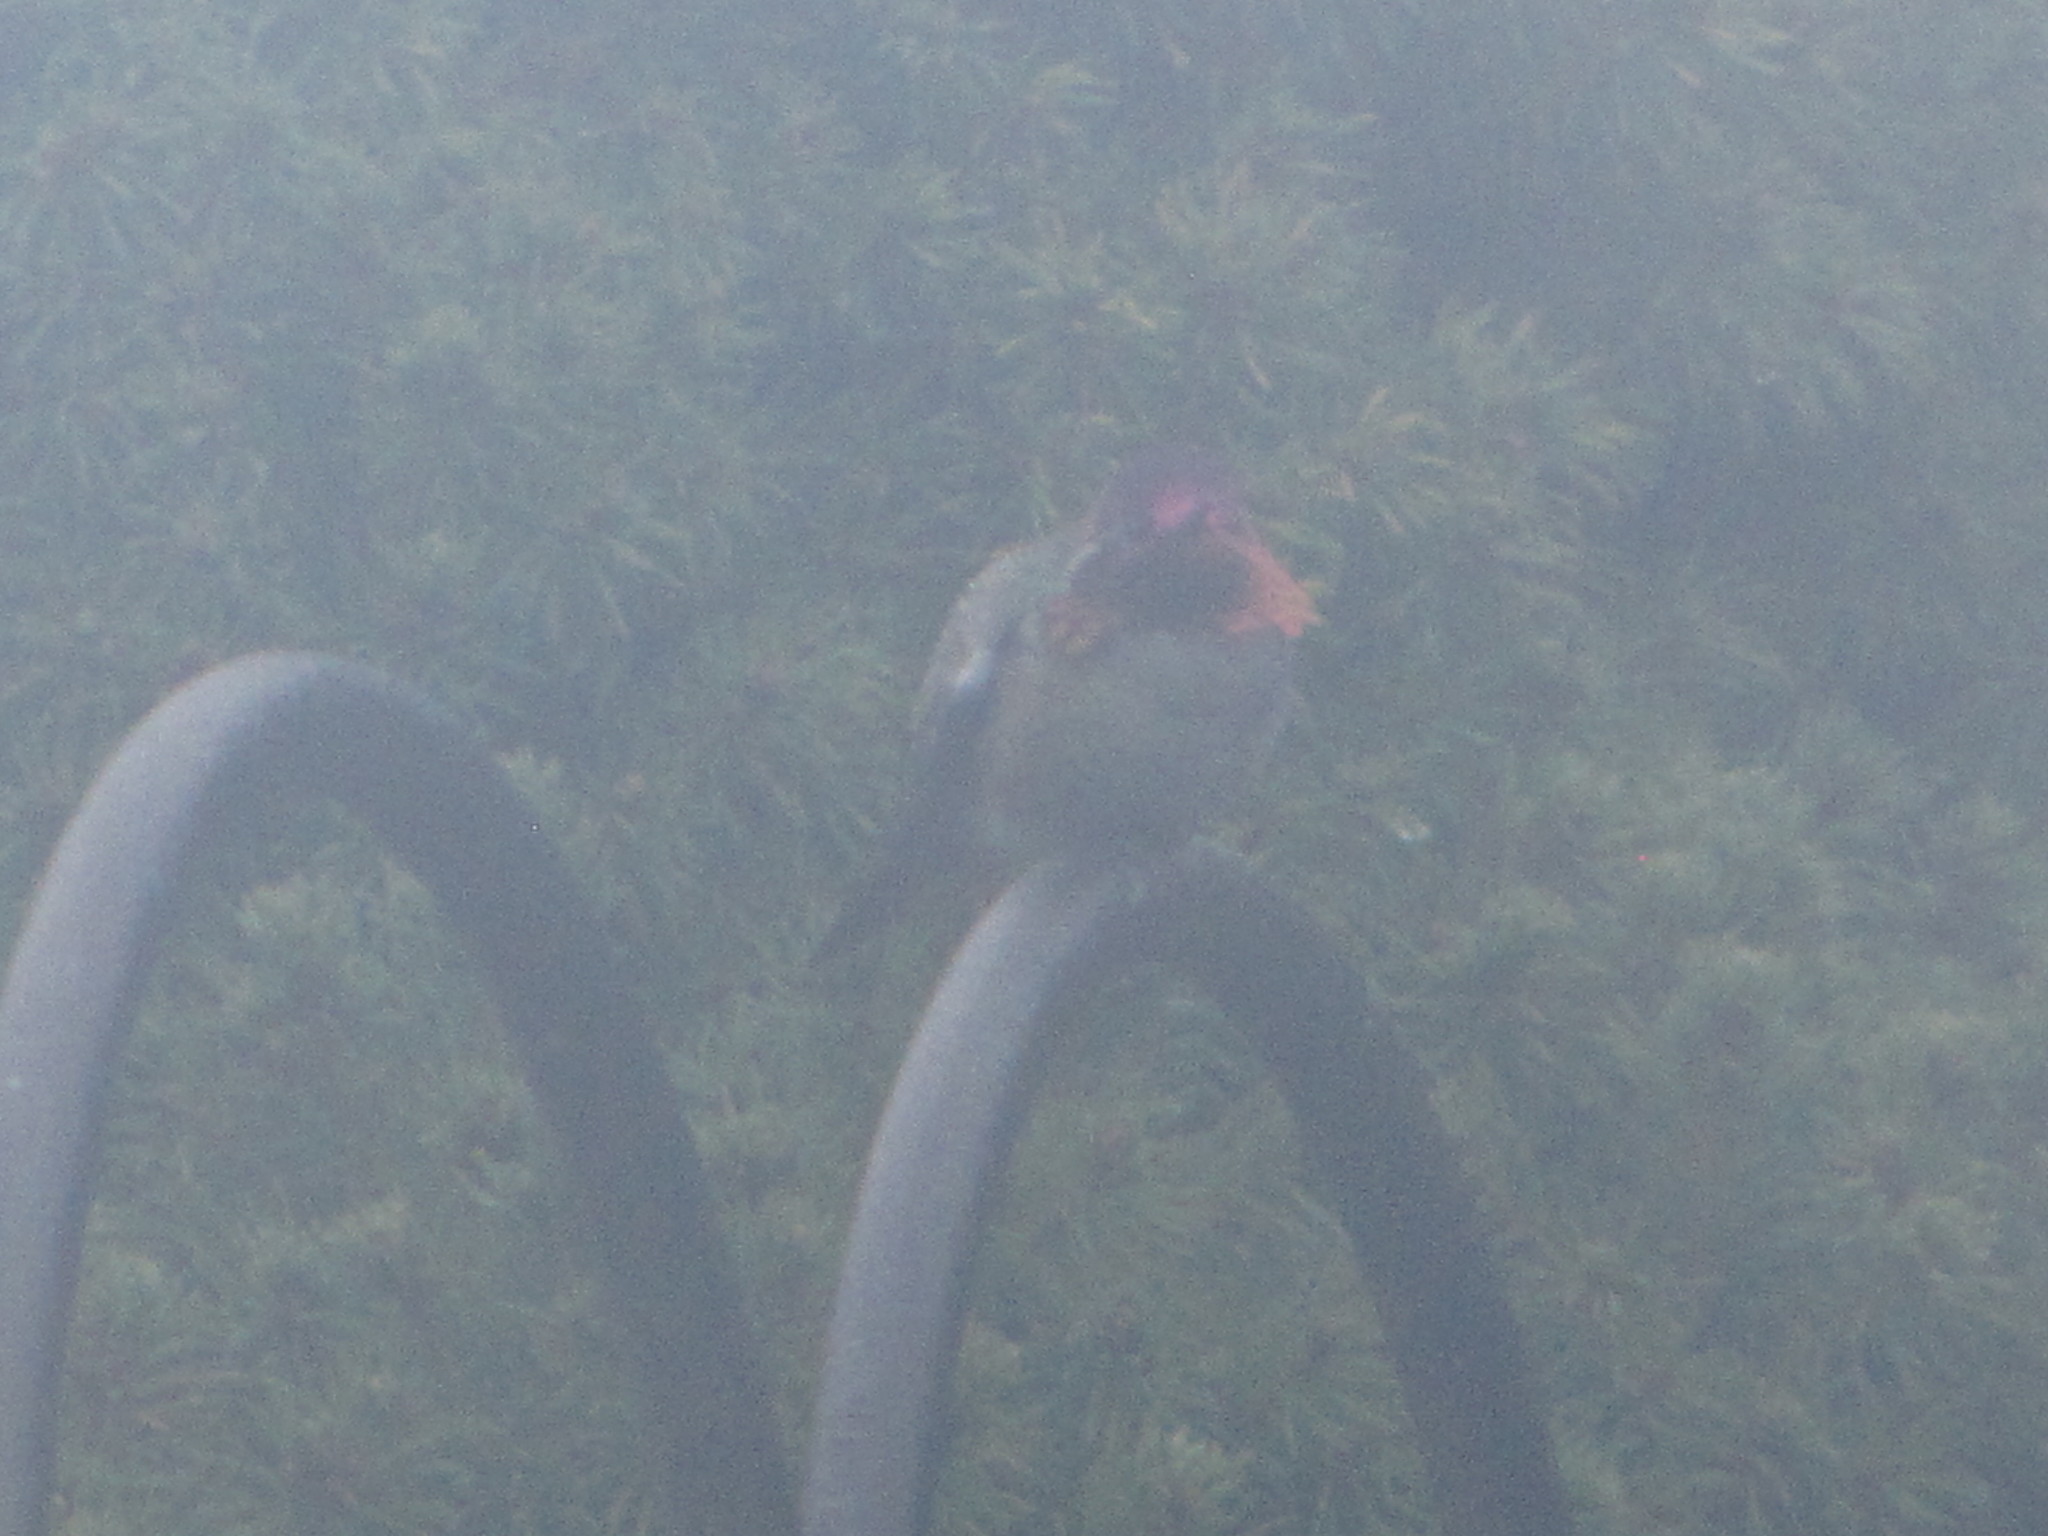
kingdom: Animalia
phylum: Chordata
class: Aves
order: Apodiformes
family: Trochilidae
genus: Calypte
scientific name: Calypte anna
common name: Anna's hummingbird
